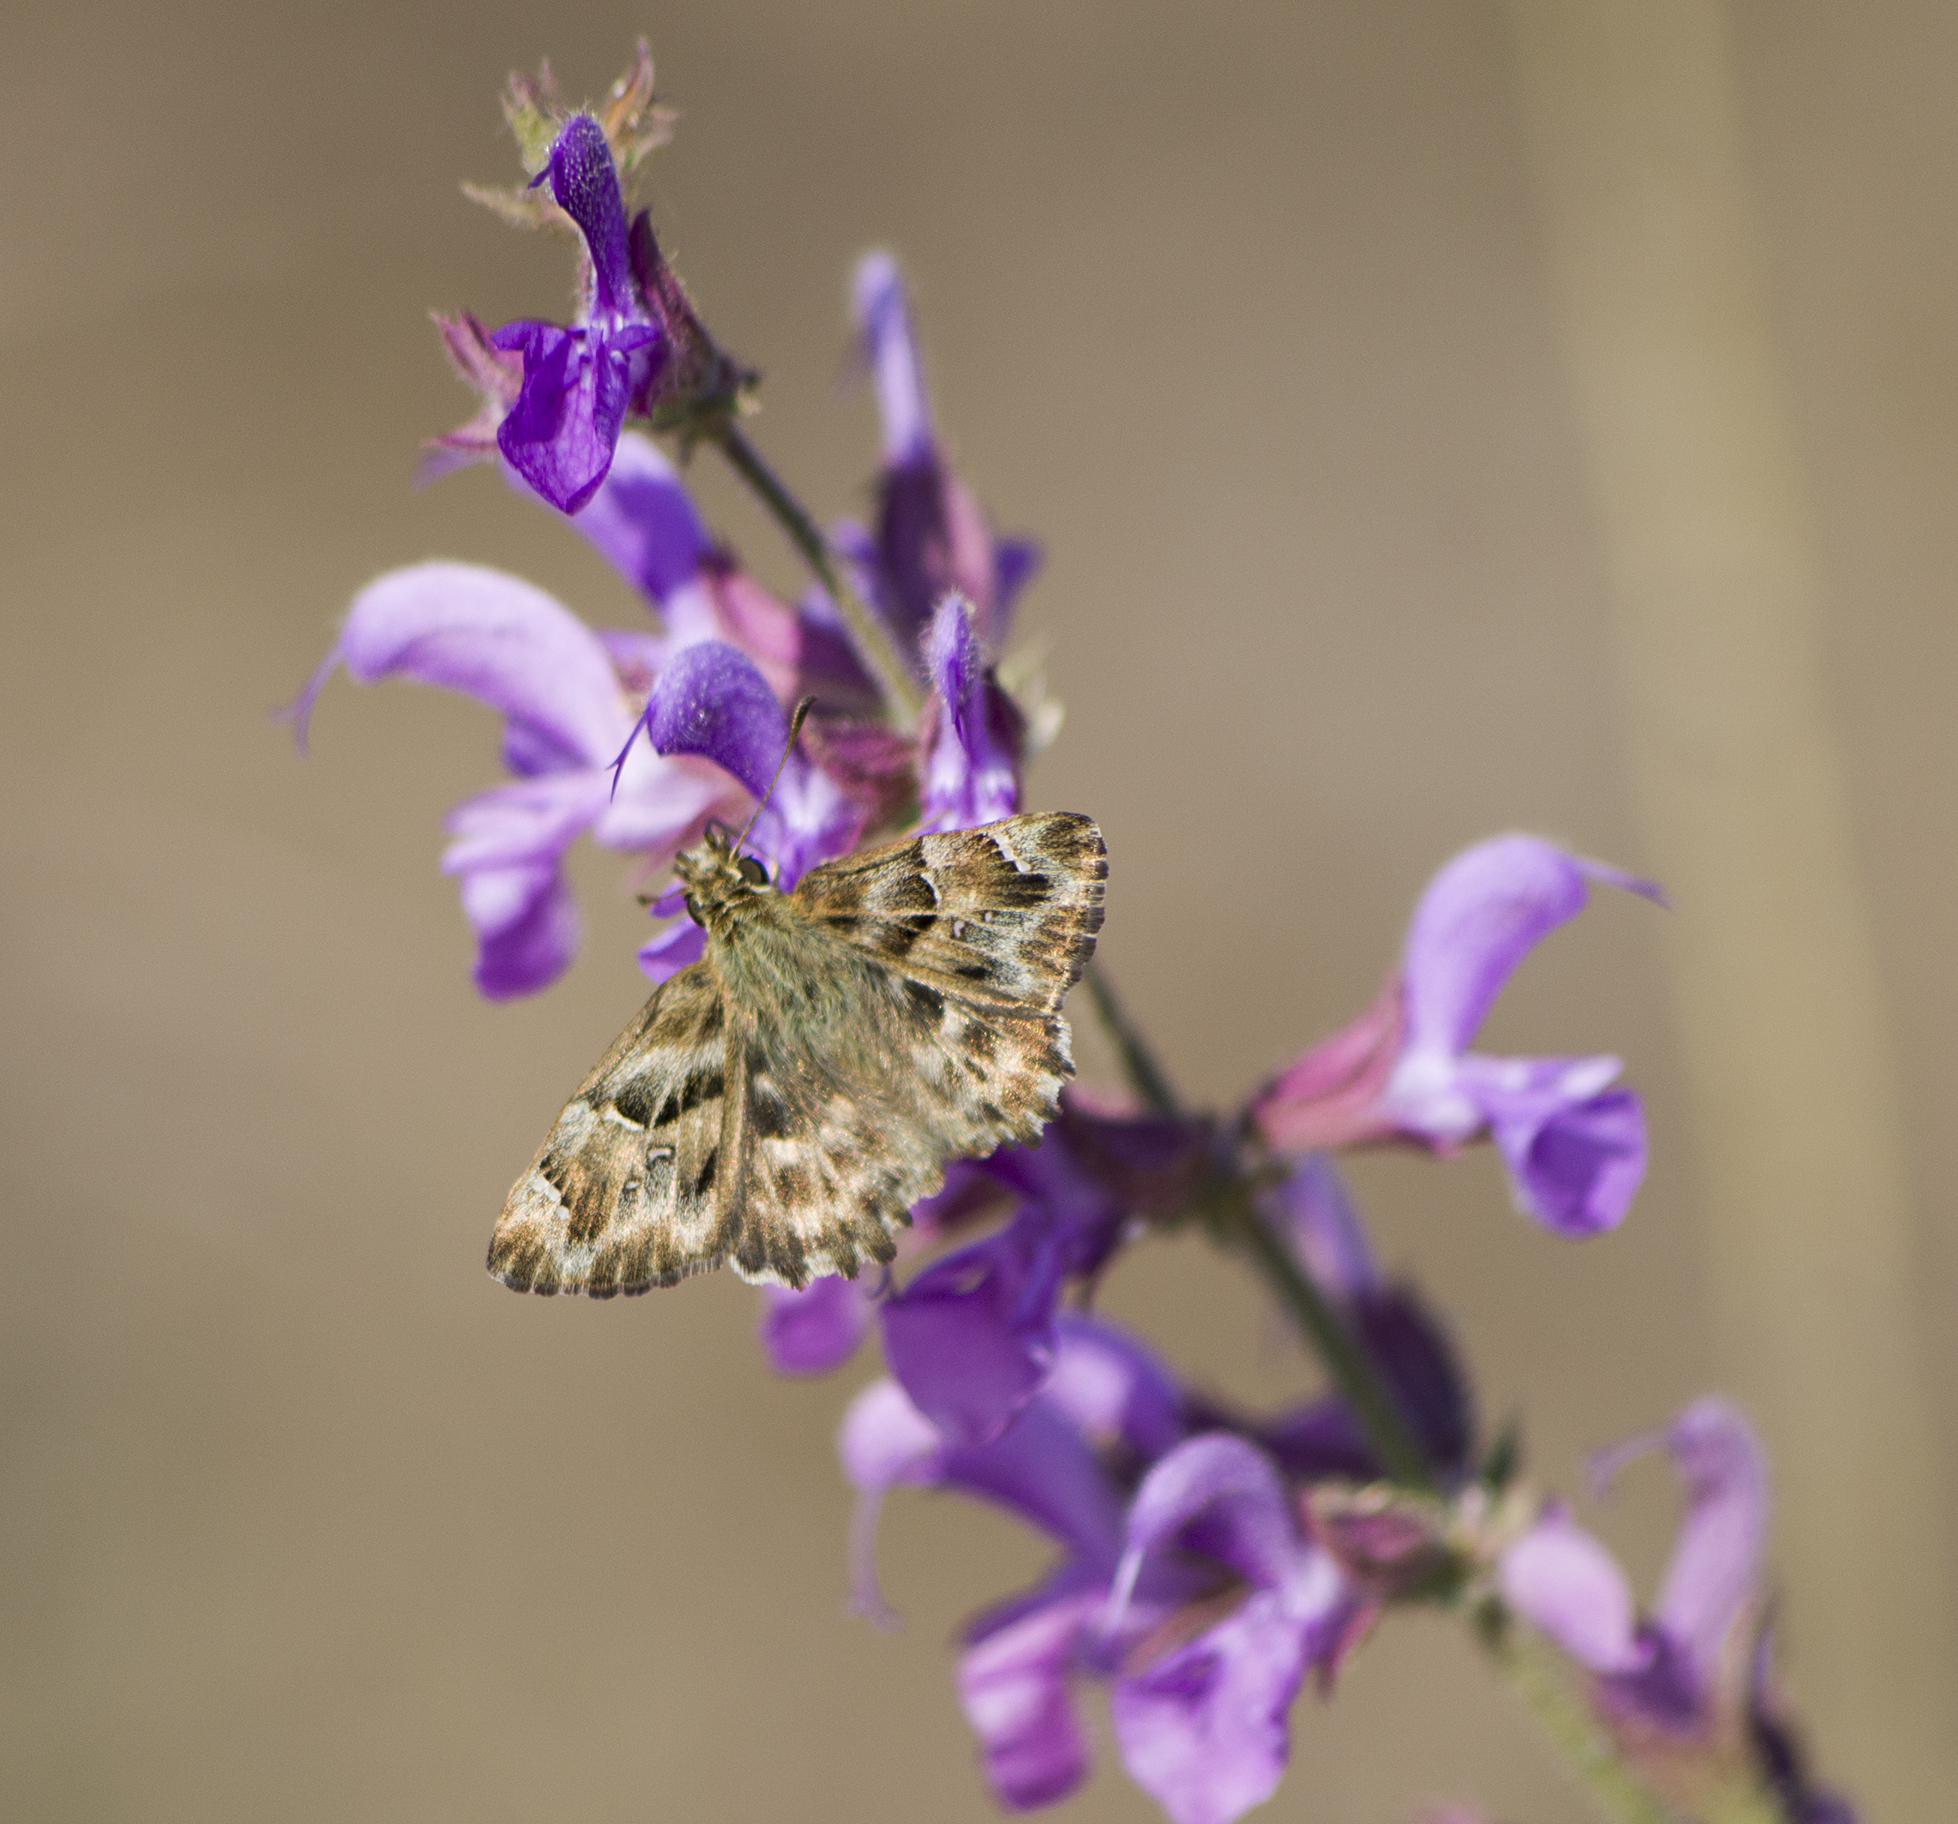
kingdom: Animalia
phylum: Arthropoda
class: Insecta
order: Lepidoptera
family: Hesperiidae
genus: Carcharodus
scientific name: Carcharodus alceae
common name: Mallow skipper
